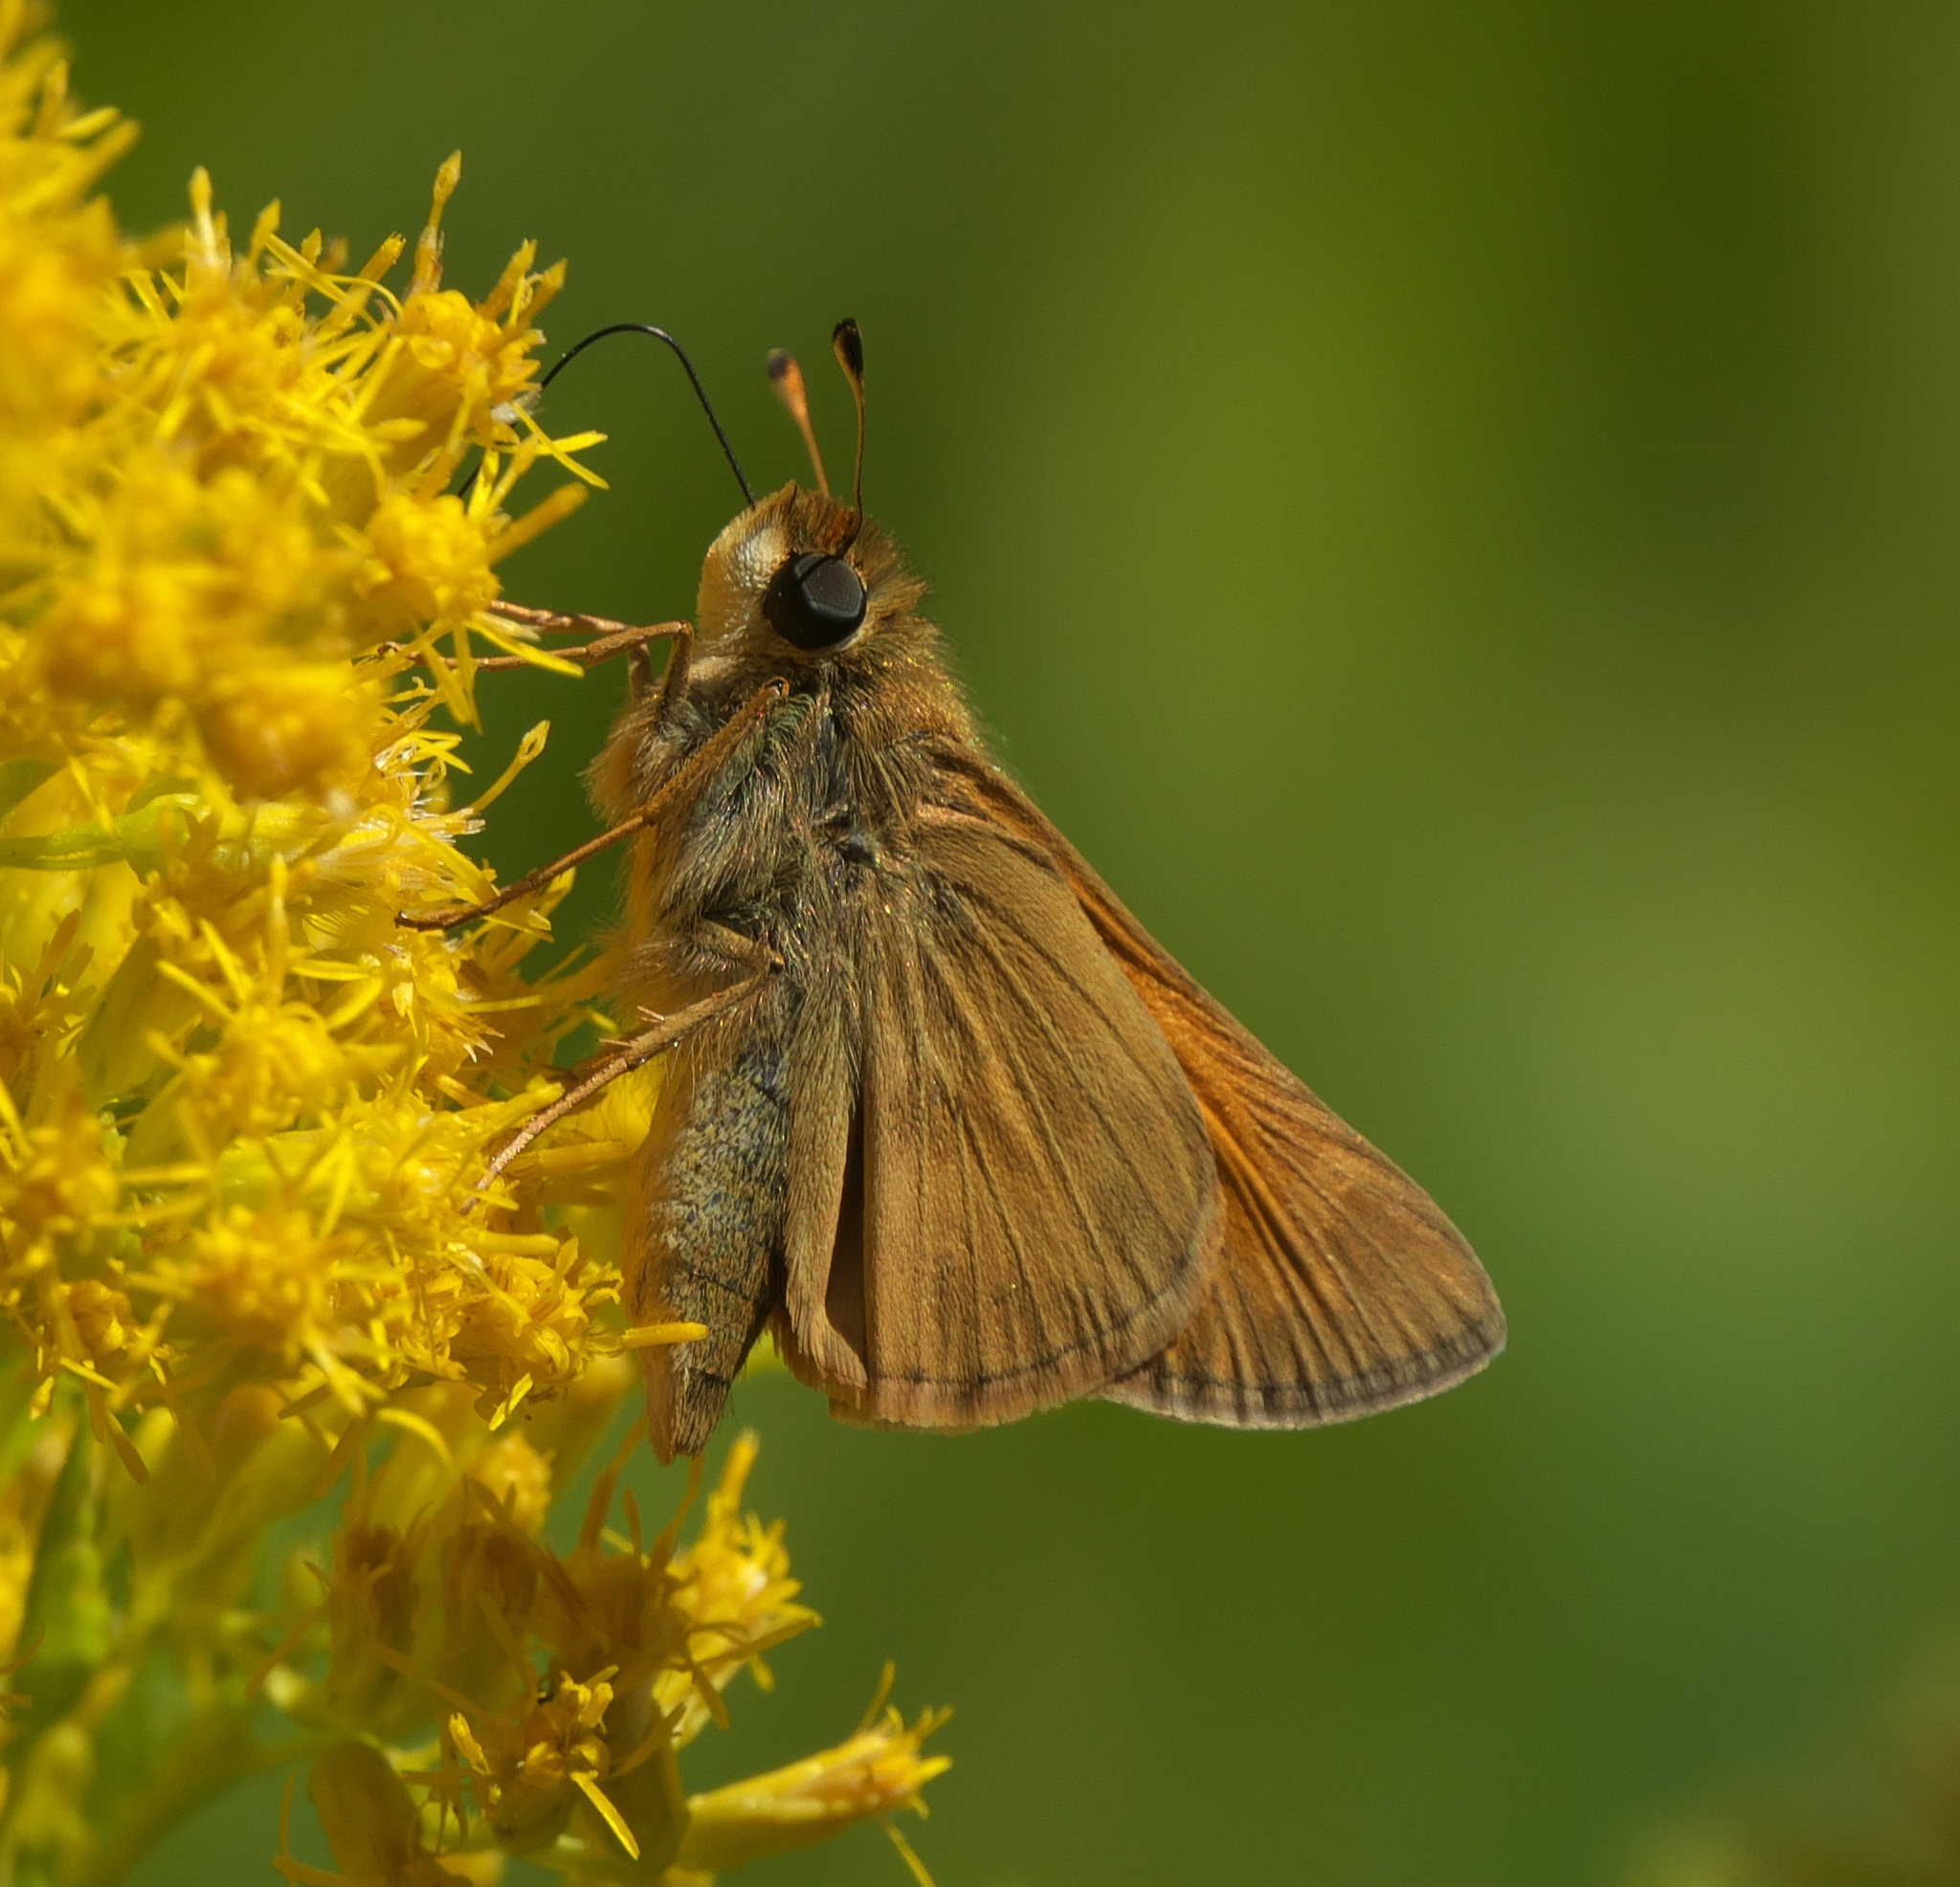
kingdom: Animalia
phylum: Arthropoda
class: Insecta
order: Lepidoptera
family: Hesperiidae
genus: Atalopedes
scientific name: Atalopedes
